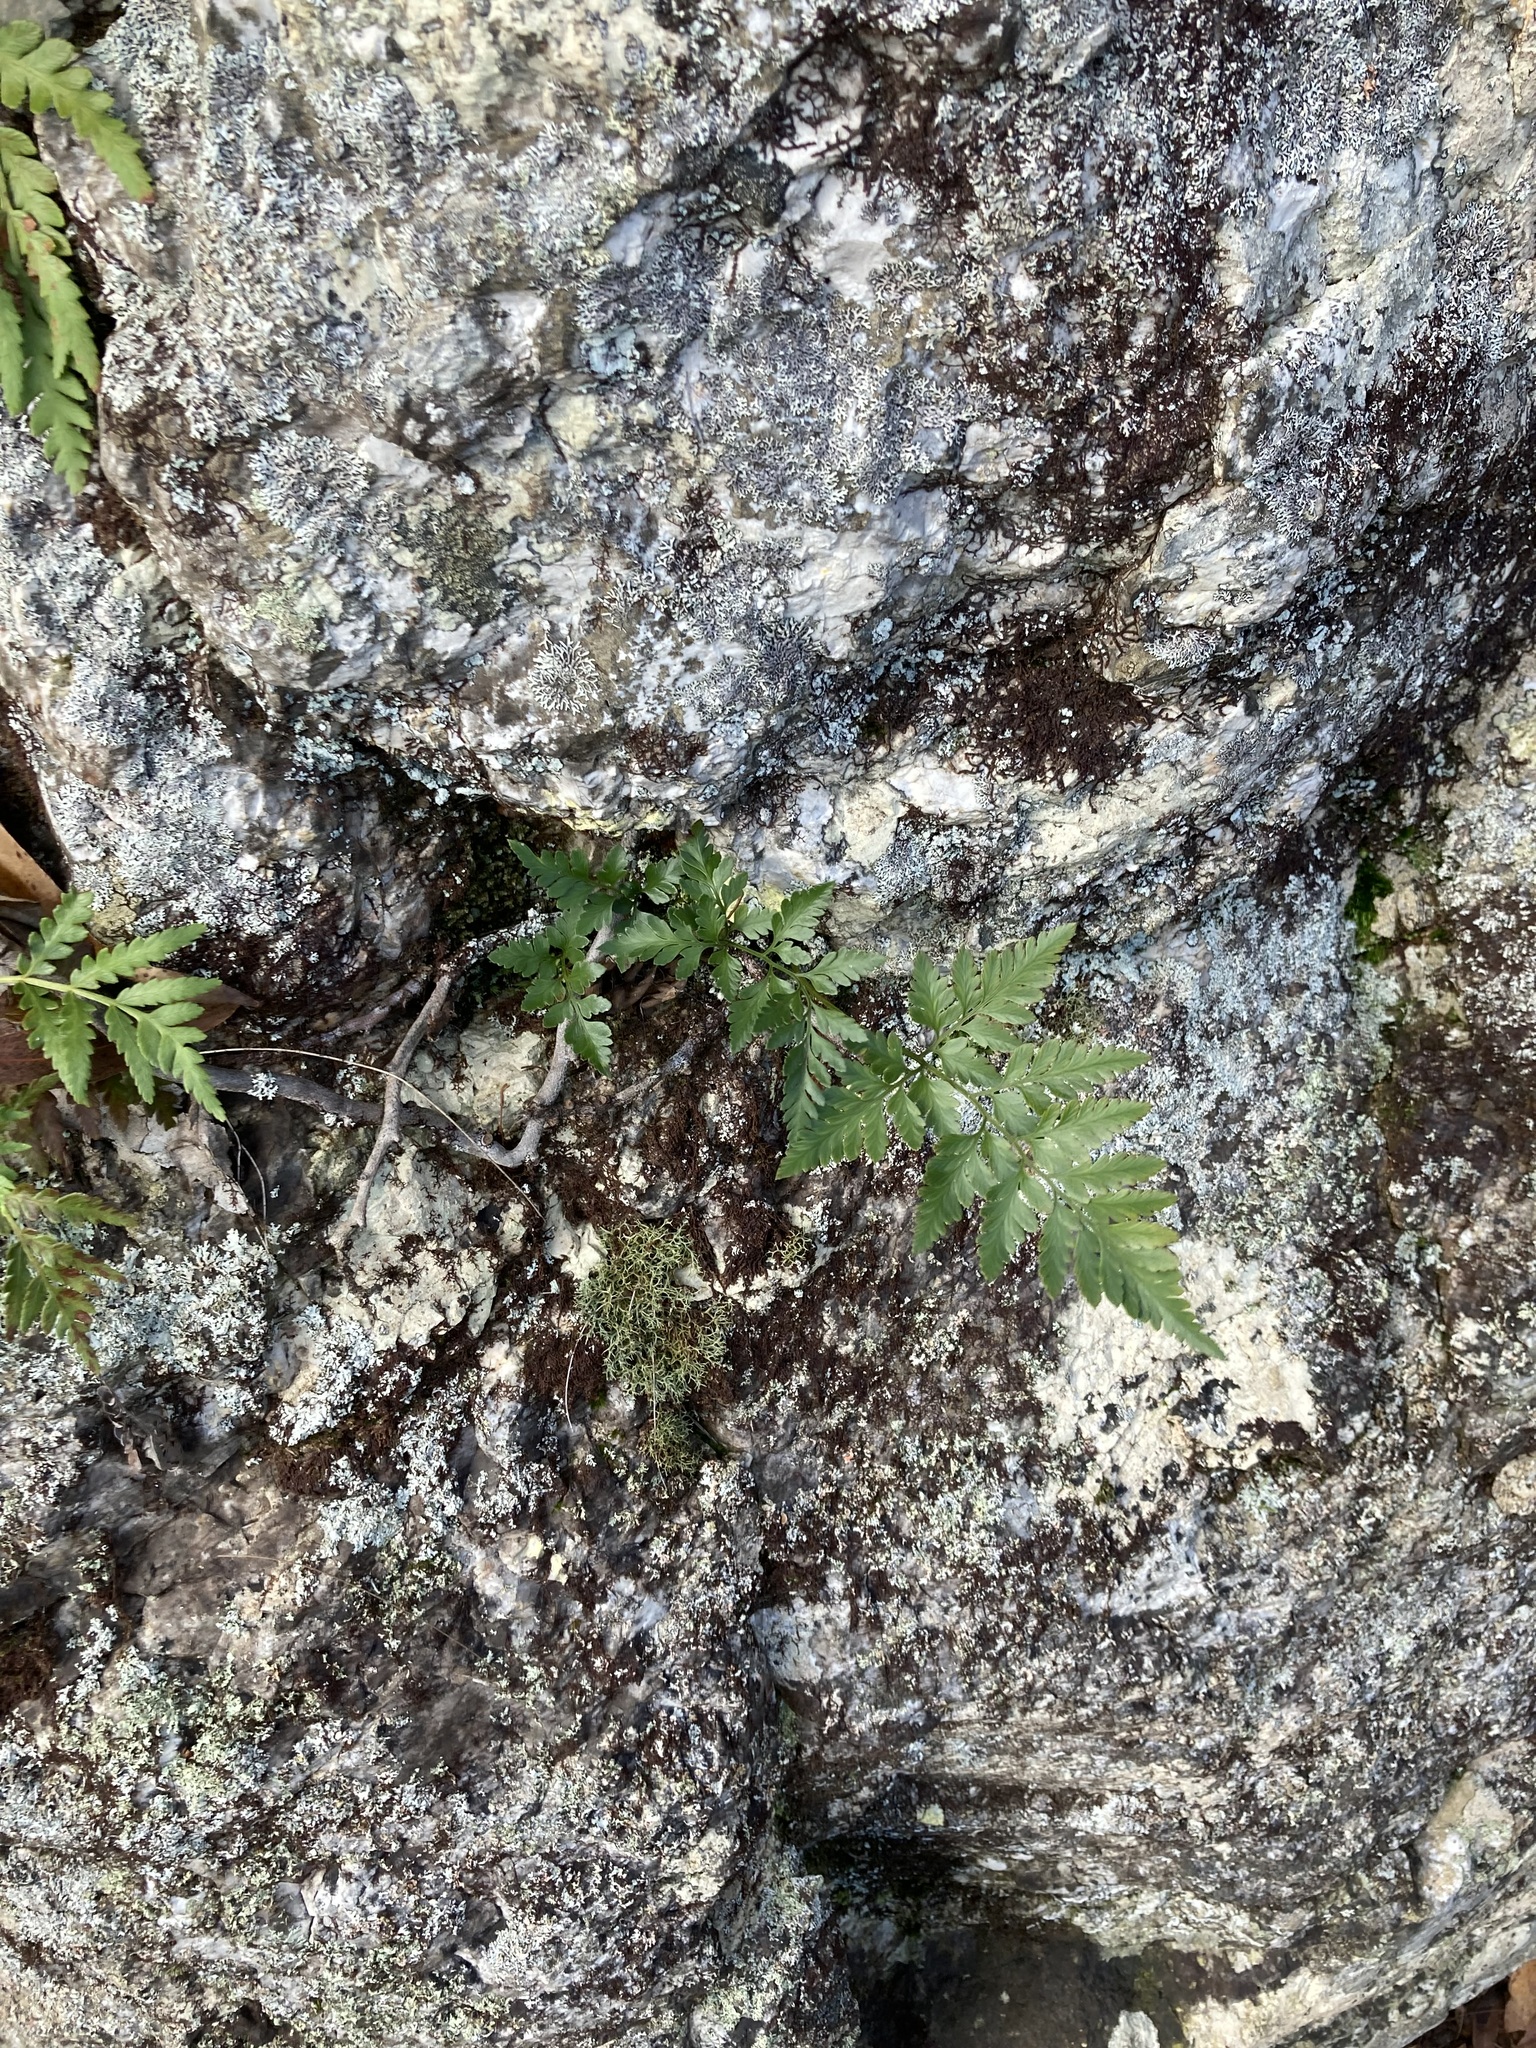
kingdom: Plantae
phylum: Tracheophyta
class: Polypodiopsida
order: Polypodiales
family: Davalliaceae
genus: Davallia
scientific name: Davallia pyxidata
